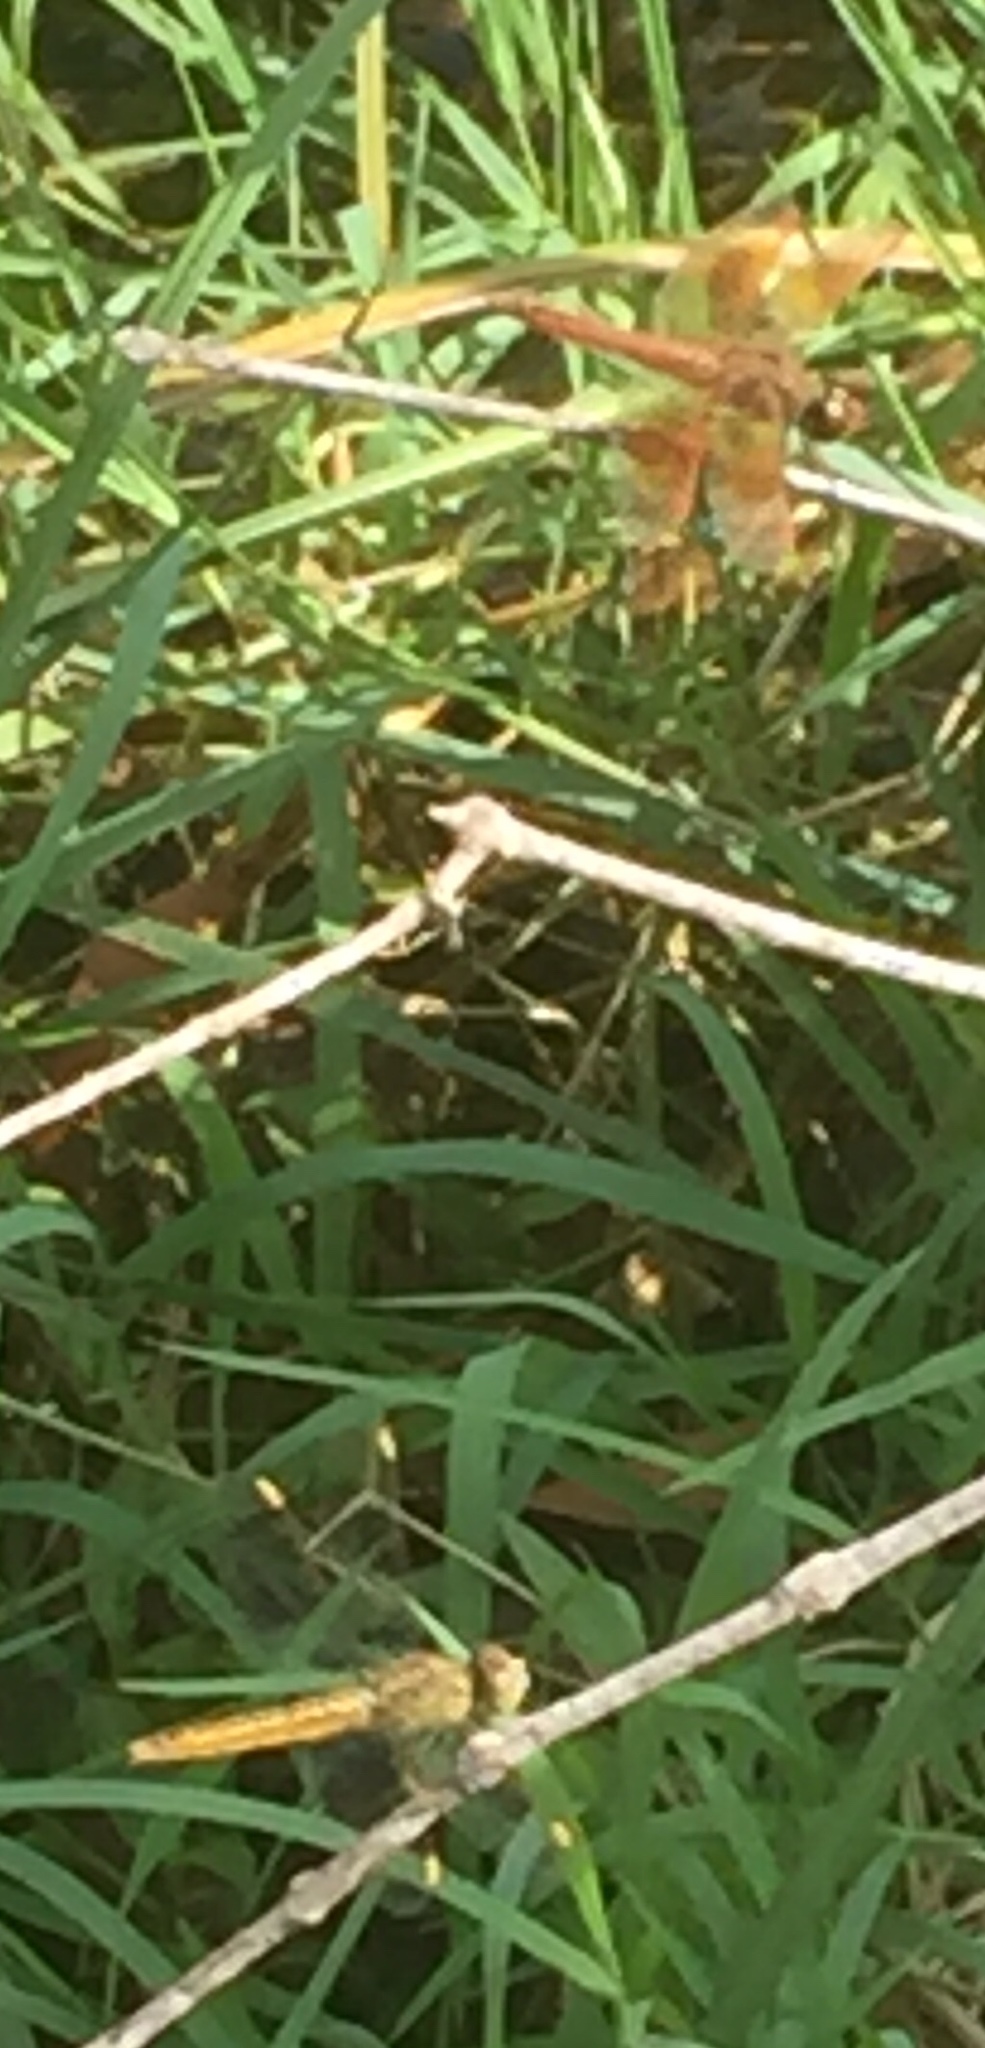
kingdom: Animalia
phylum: Arthropoda
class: Insecta
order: Odonata
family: Libellulidae
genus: Brachythemis
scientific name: Brachythemis contaminata
